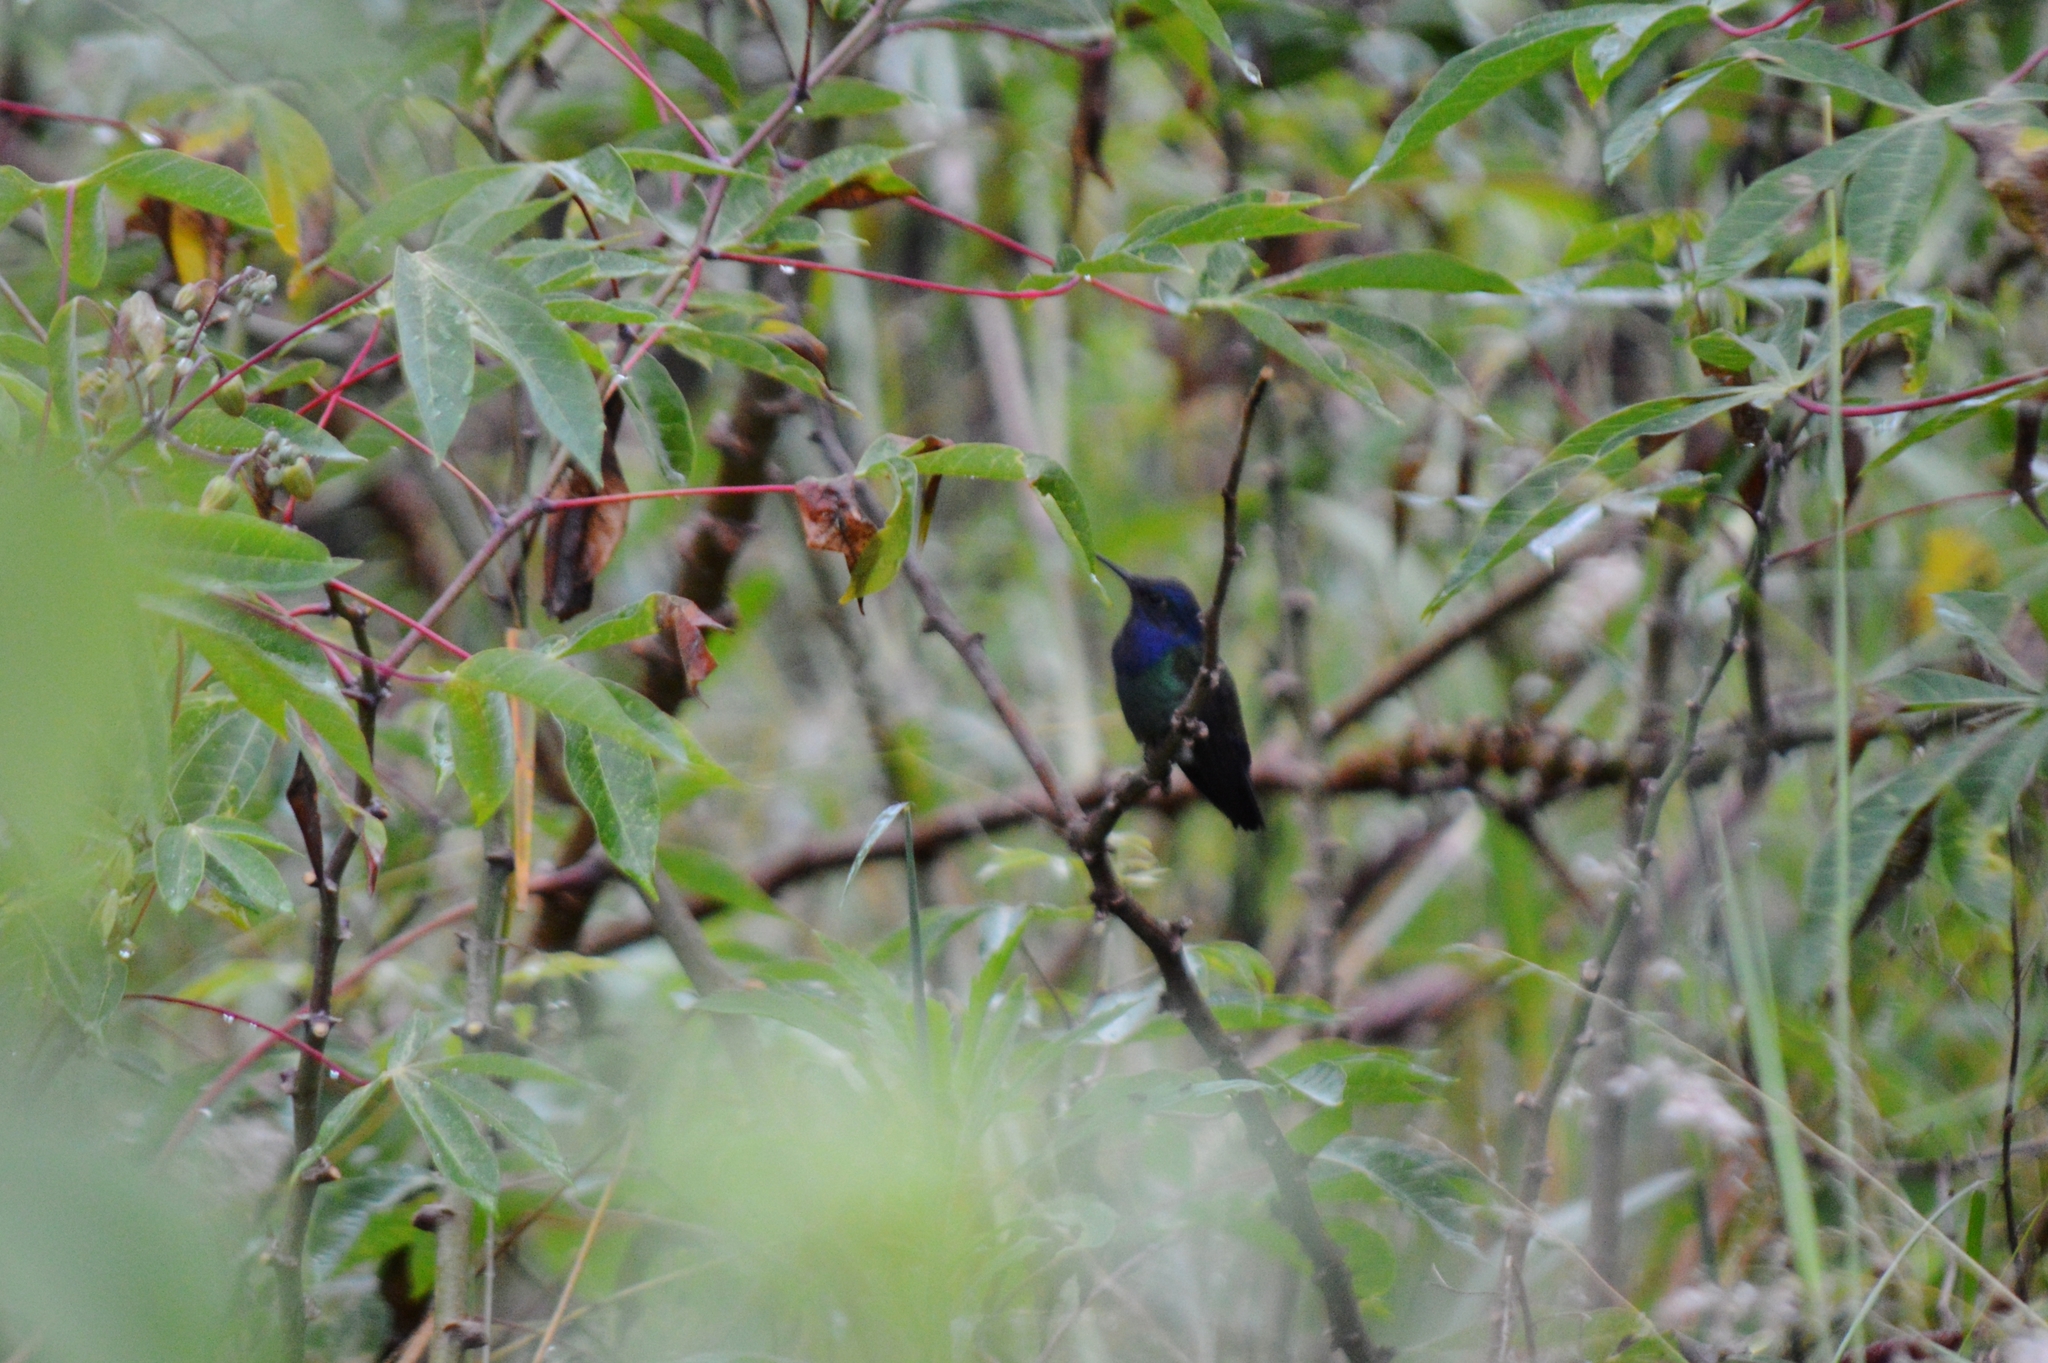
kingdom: Animalia
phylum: Chordata
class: Aves
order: Apodiformes
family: Trochilidae
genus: Eupetomena
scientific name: Eupetomena macroura
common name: Swallow-tailed hummingbird
